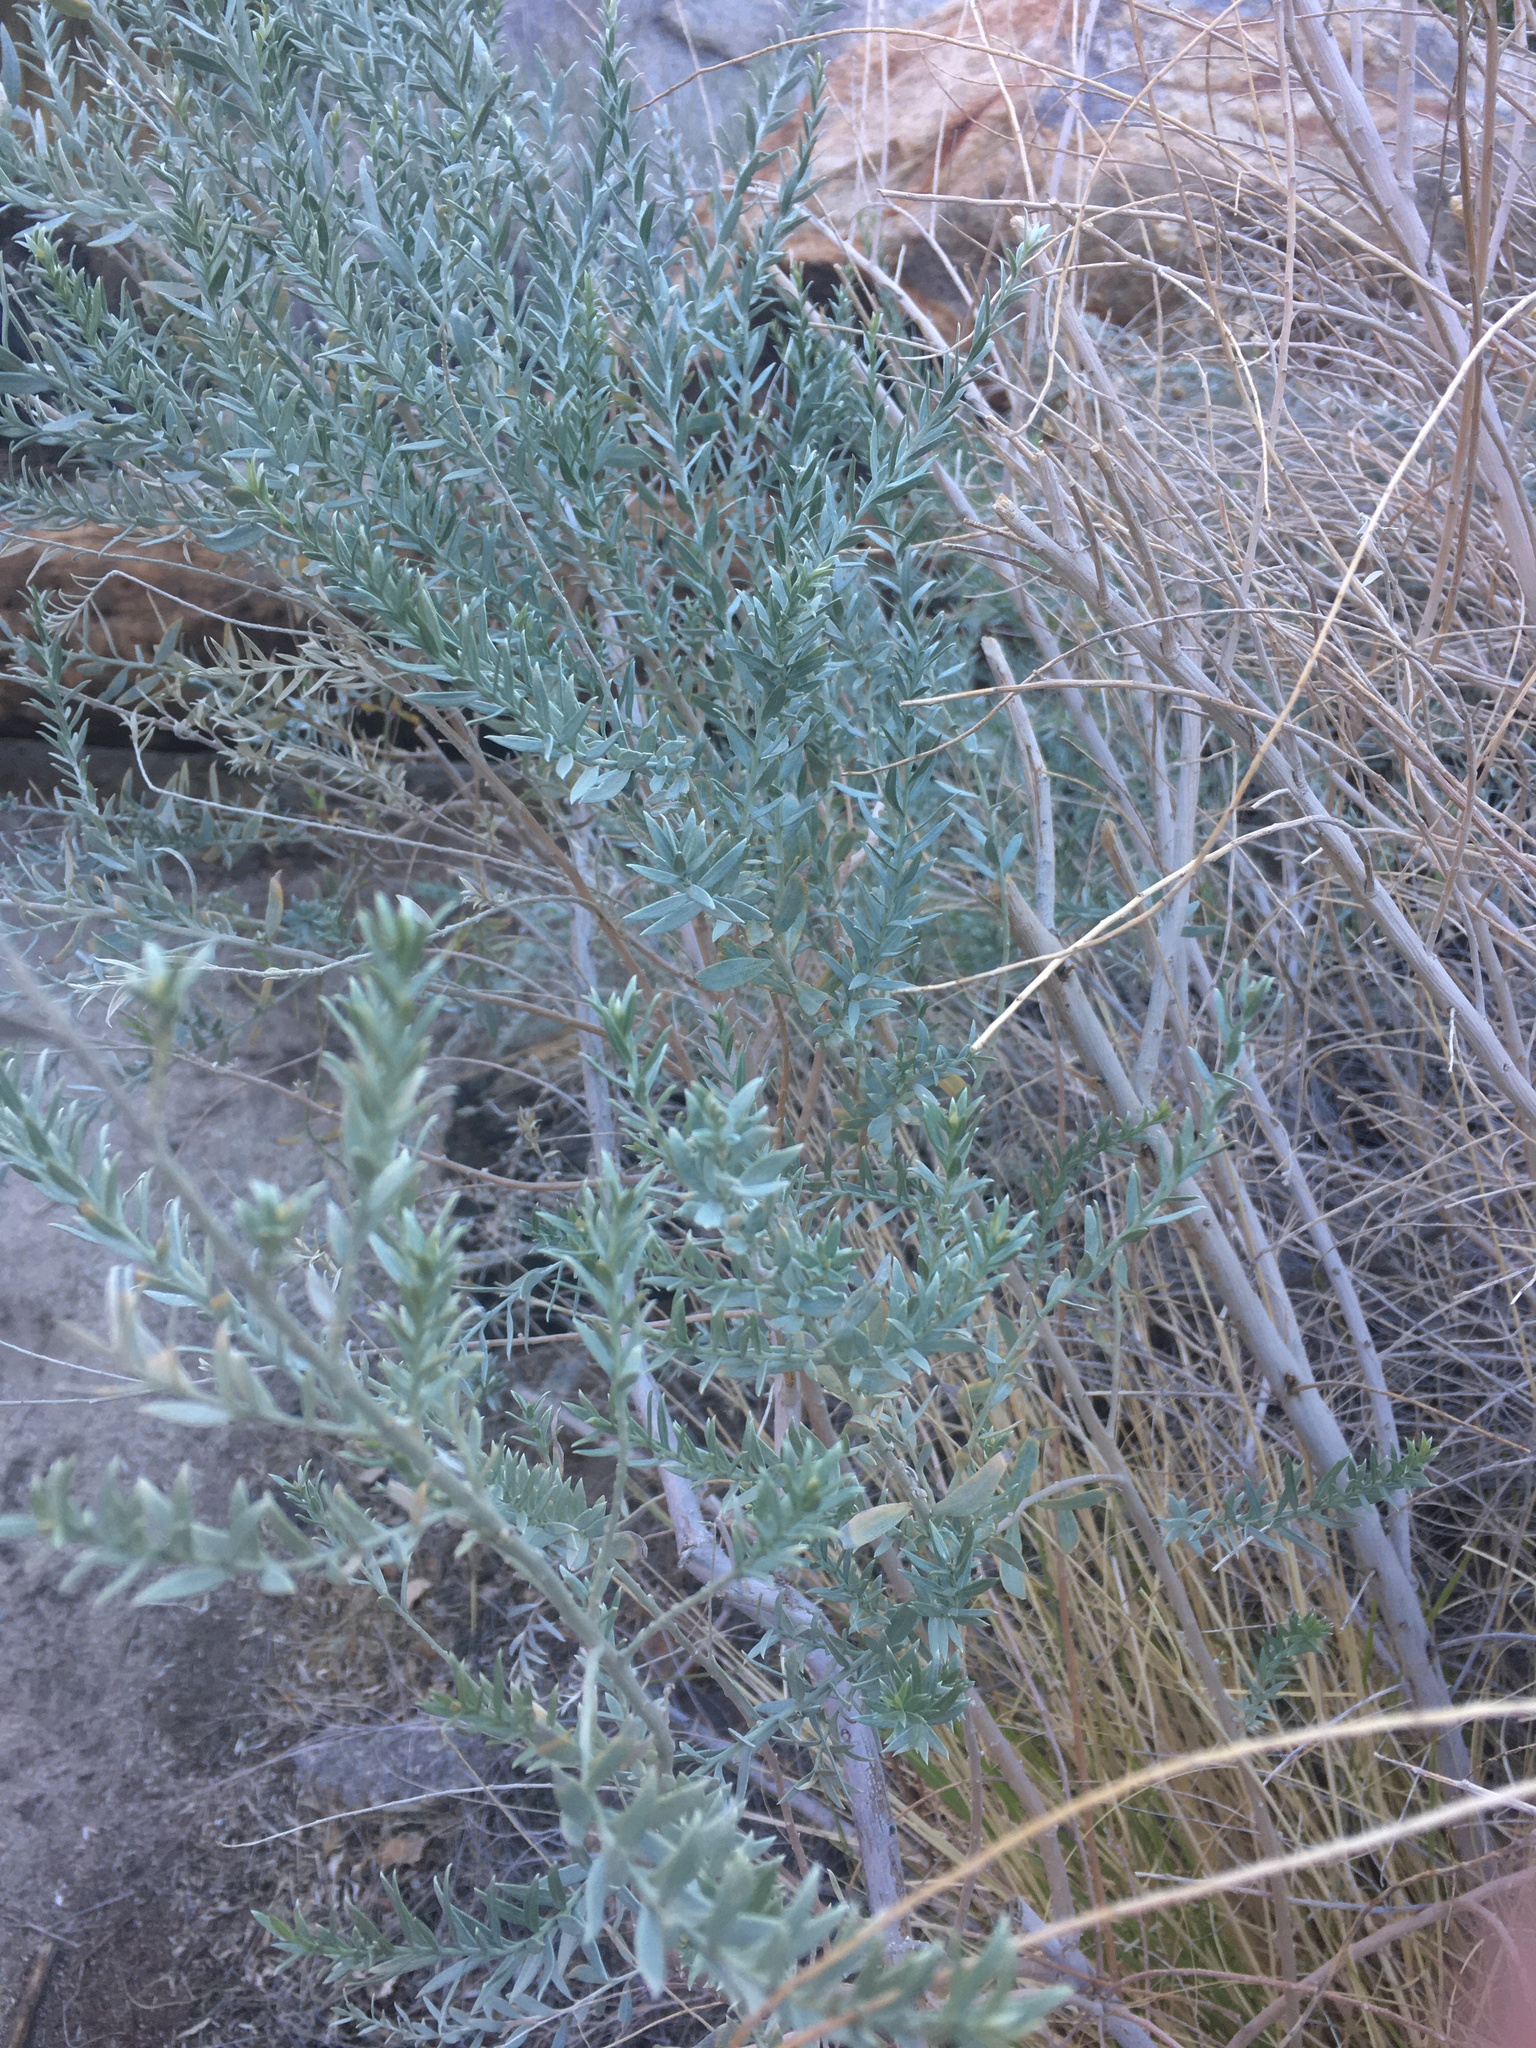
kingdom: Plantae
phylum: Tracheophyta
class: Magnoliopsida
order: Asterales
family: Asteraceae
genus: Pluchea
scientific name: Pluchea sericea
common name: Arrow-weed
